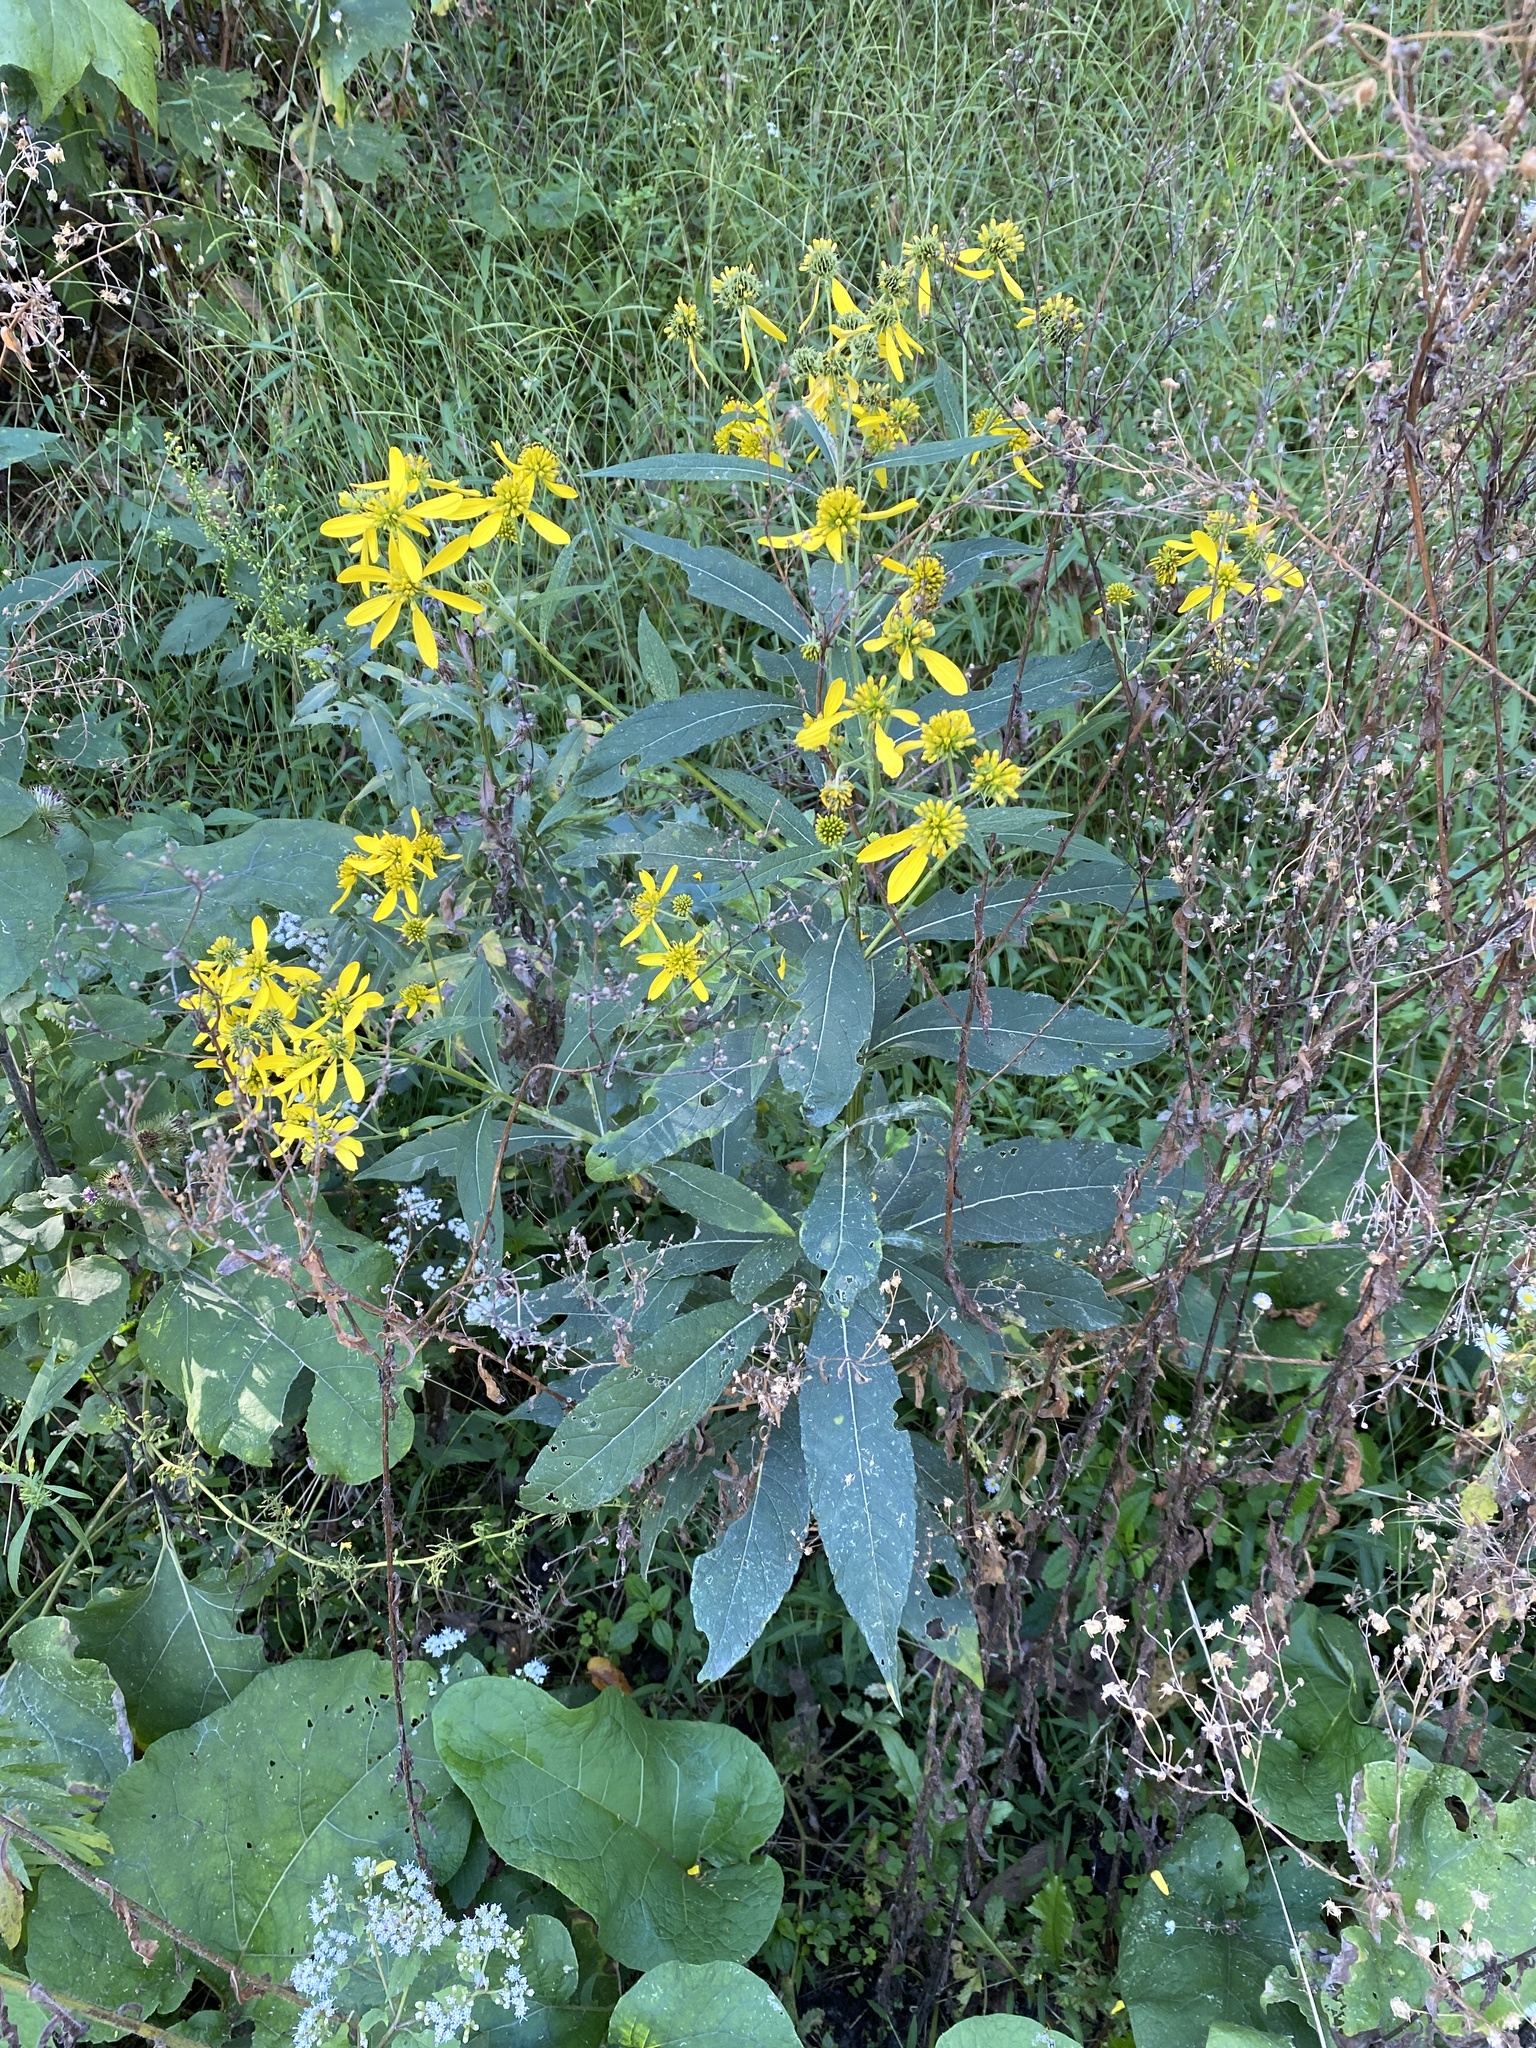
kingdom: Plantae
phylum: Tracheophyta
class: Magnoliopsida
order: Asterales
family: Asteraceae
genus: Verbesina
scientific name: Verbesina alternifolia
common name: Wingstem
